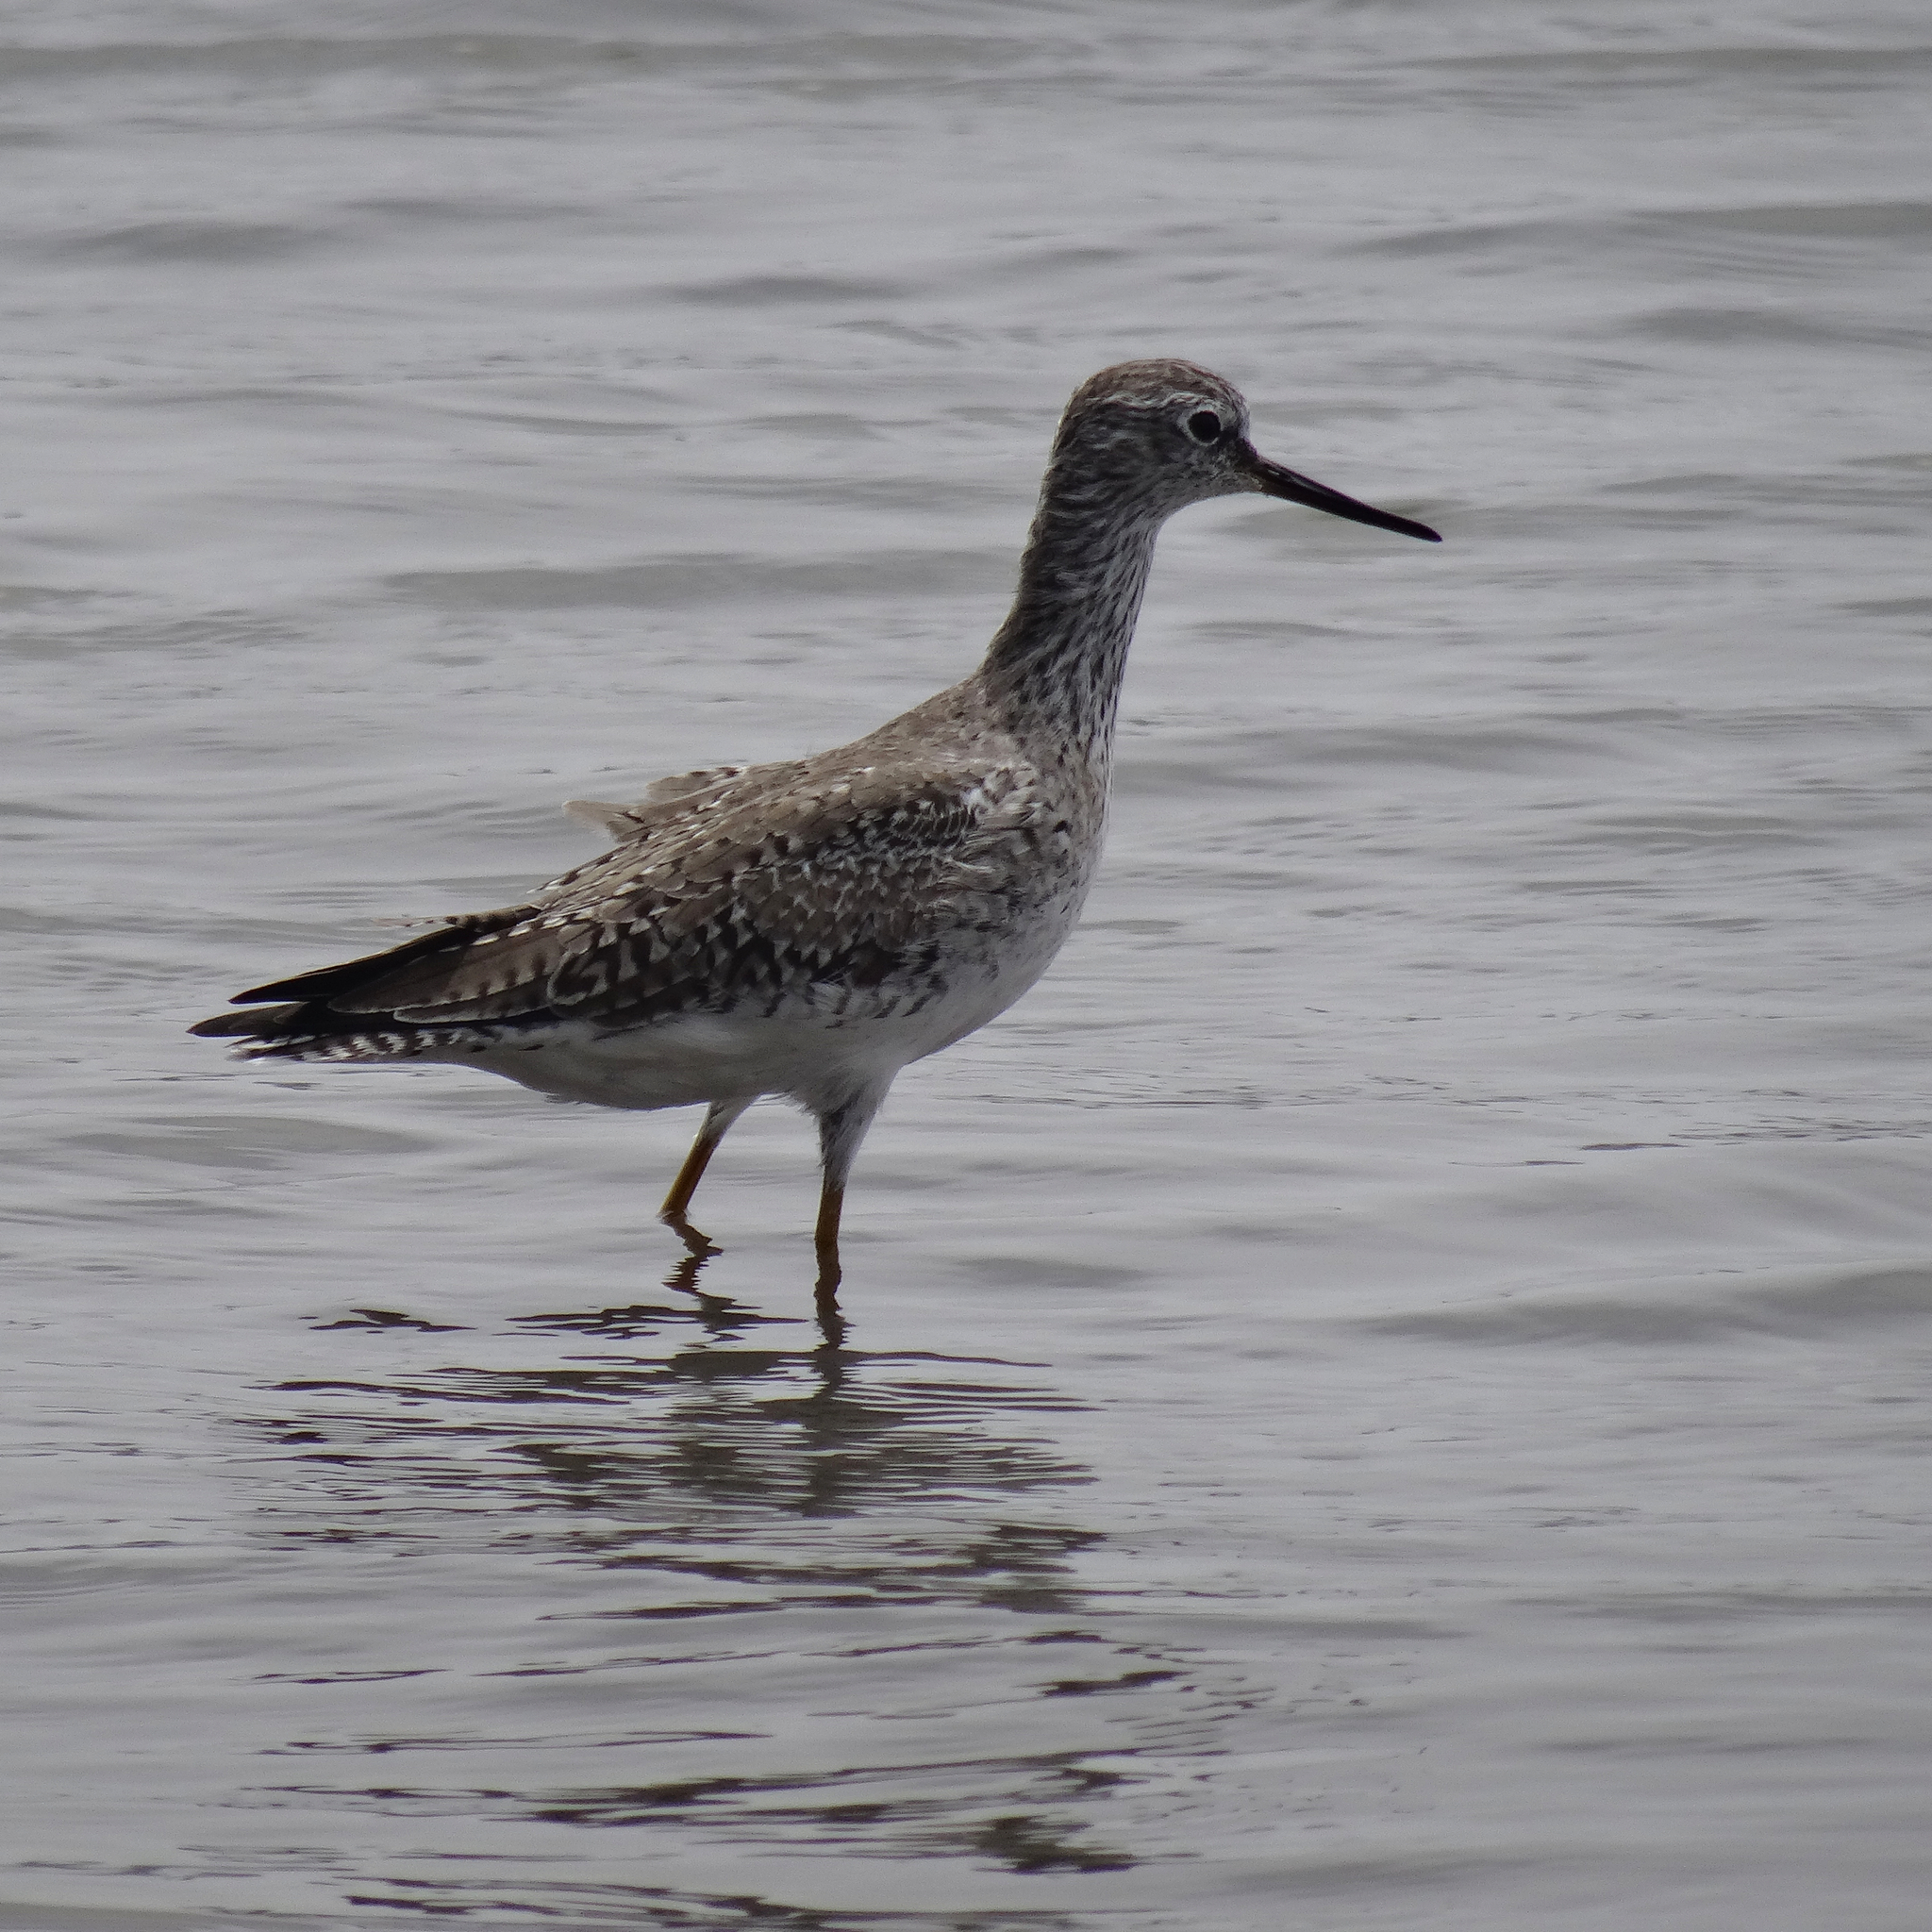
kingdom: Animalia
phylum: Chordata
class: Aves
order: Charadriiformes
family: Scolopacidae
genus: Tringa
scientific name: Tringa melanoleuca
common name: Greater yellowlegs
